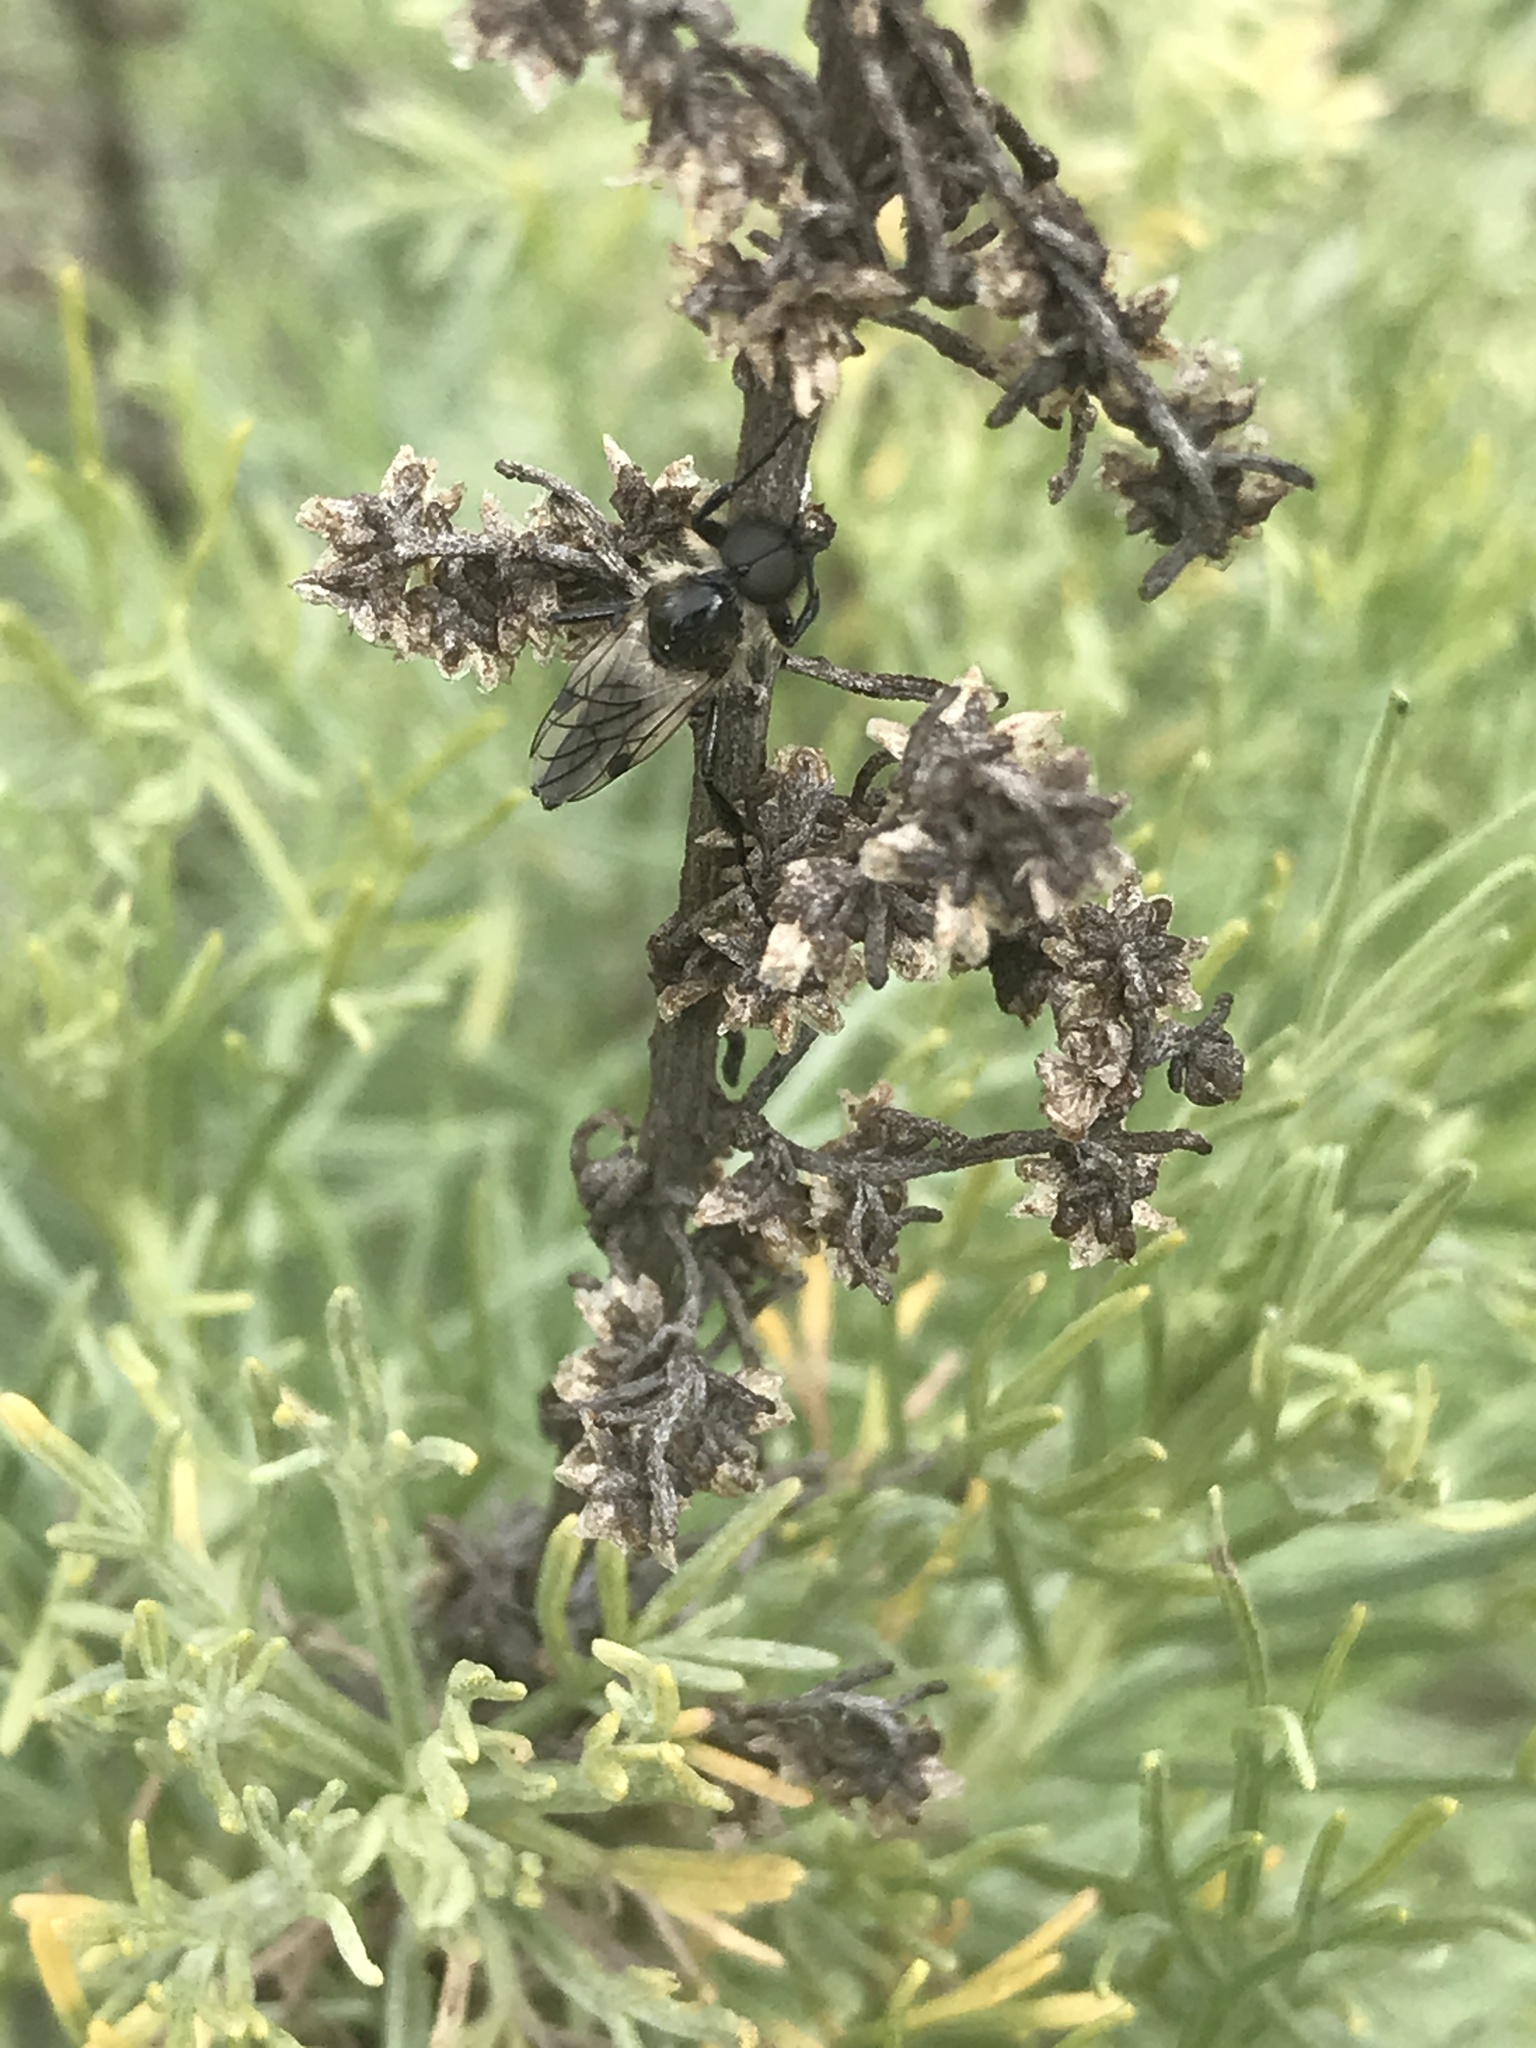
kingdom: Animalia
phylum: Arthropoda
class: Insecta
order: Diptera
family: Bibionidae
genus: Bibio
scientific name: Bibio albipennis
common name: White-winged march fly
